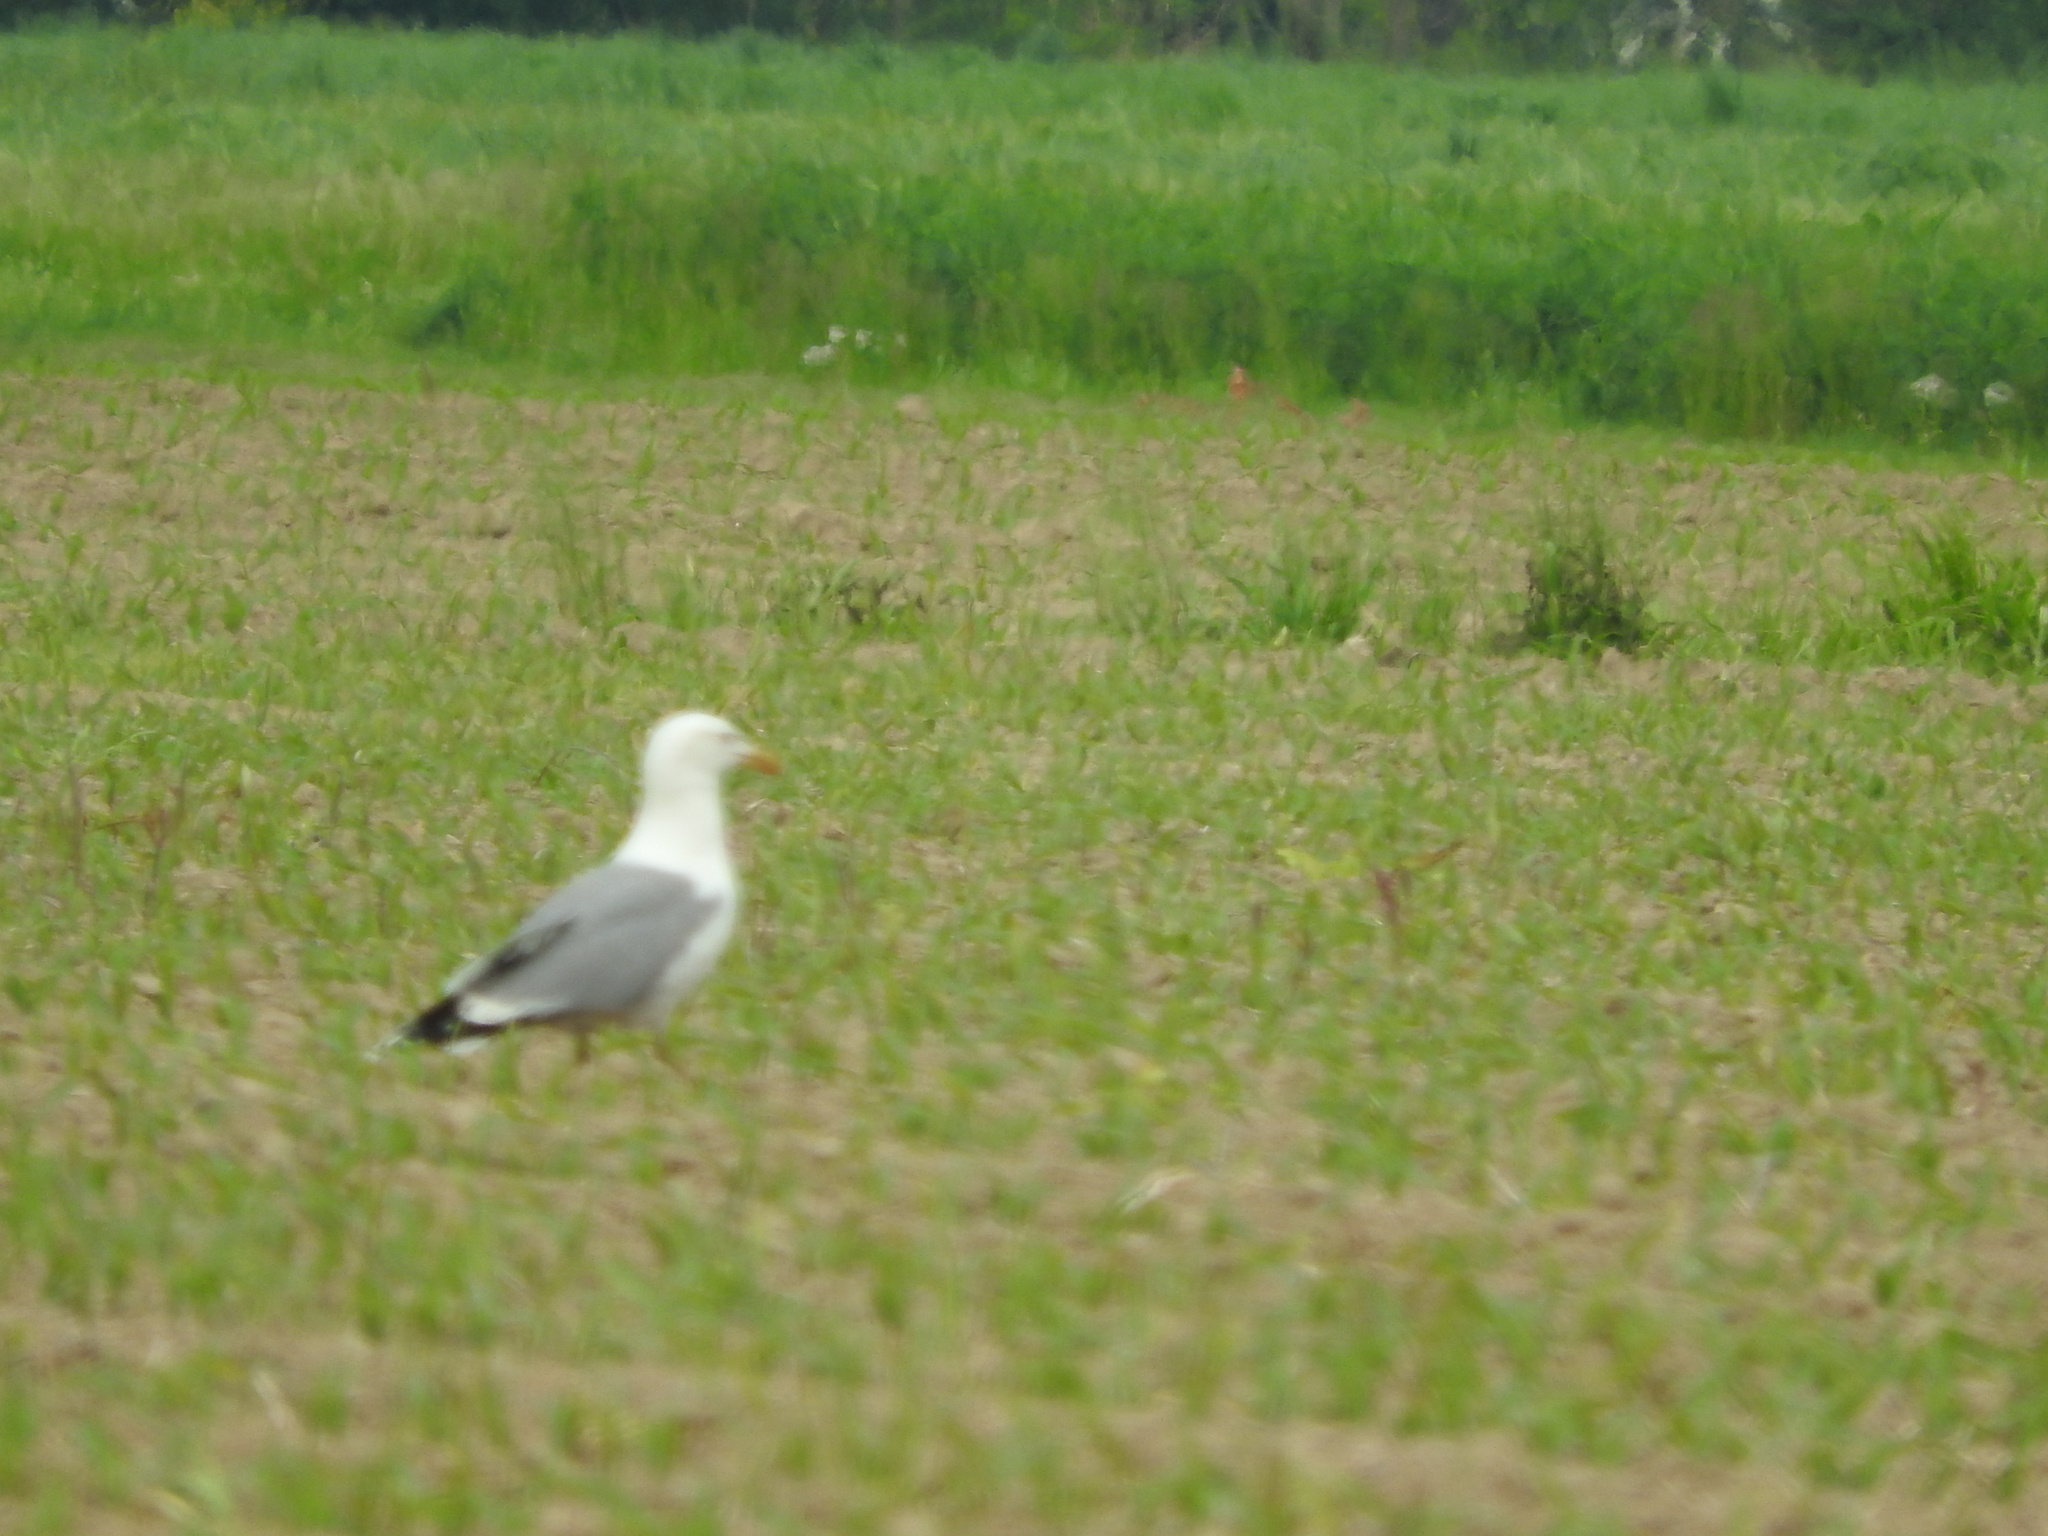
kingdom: Animalia
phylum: Chordata
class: Aves
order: Charadriiformes
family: Laridae
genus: Larus
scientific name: Larus michahellis
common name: Yellow-legged gull
